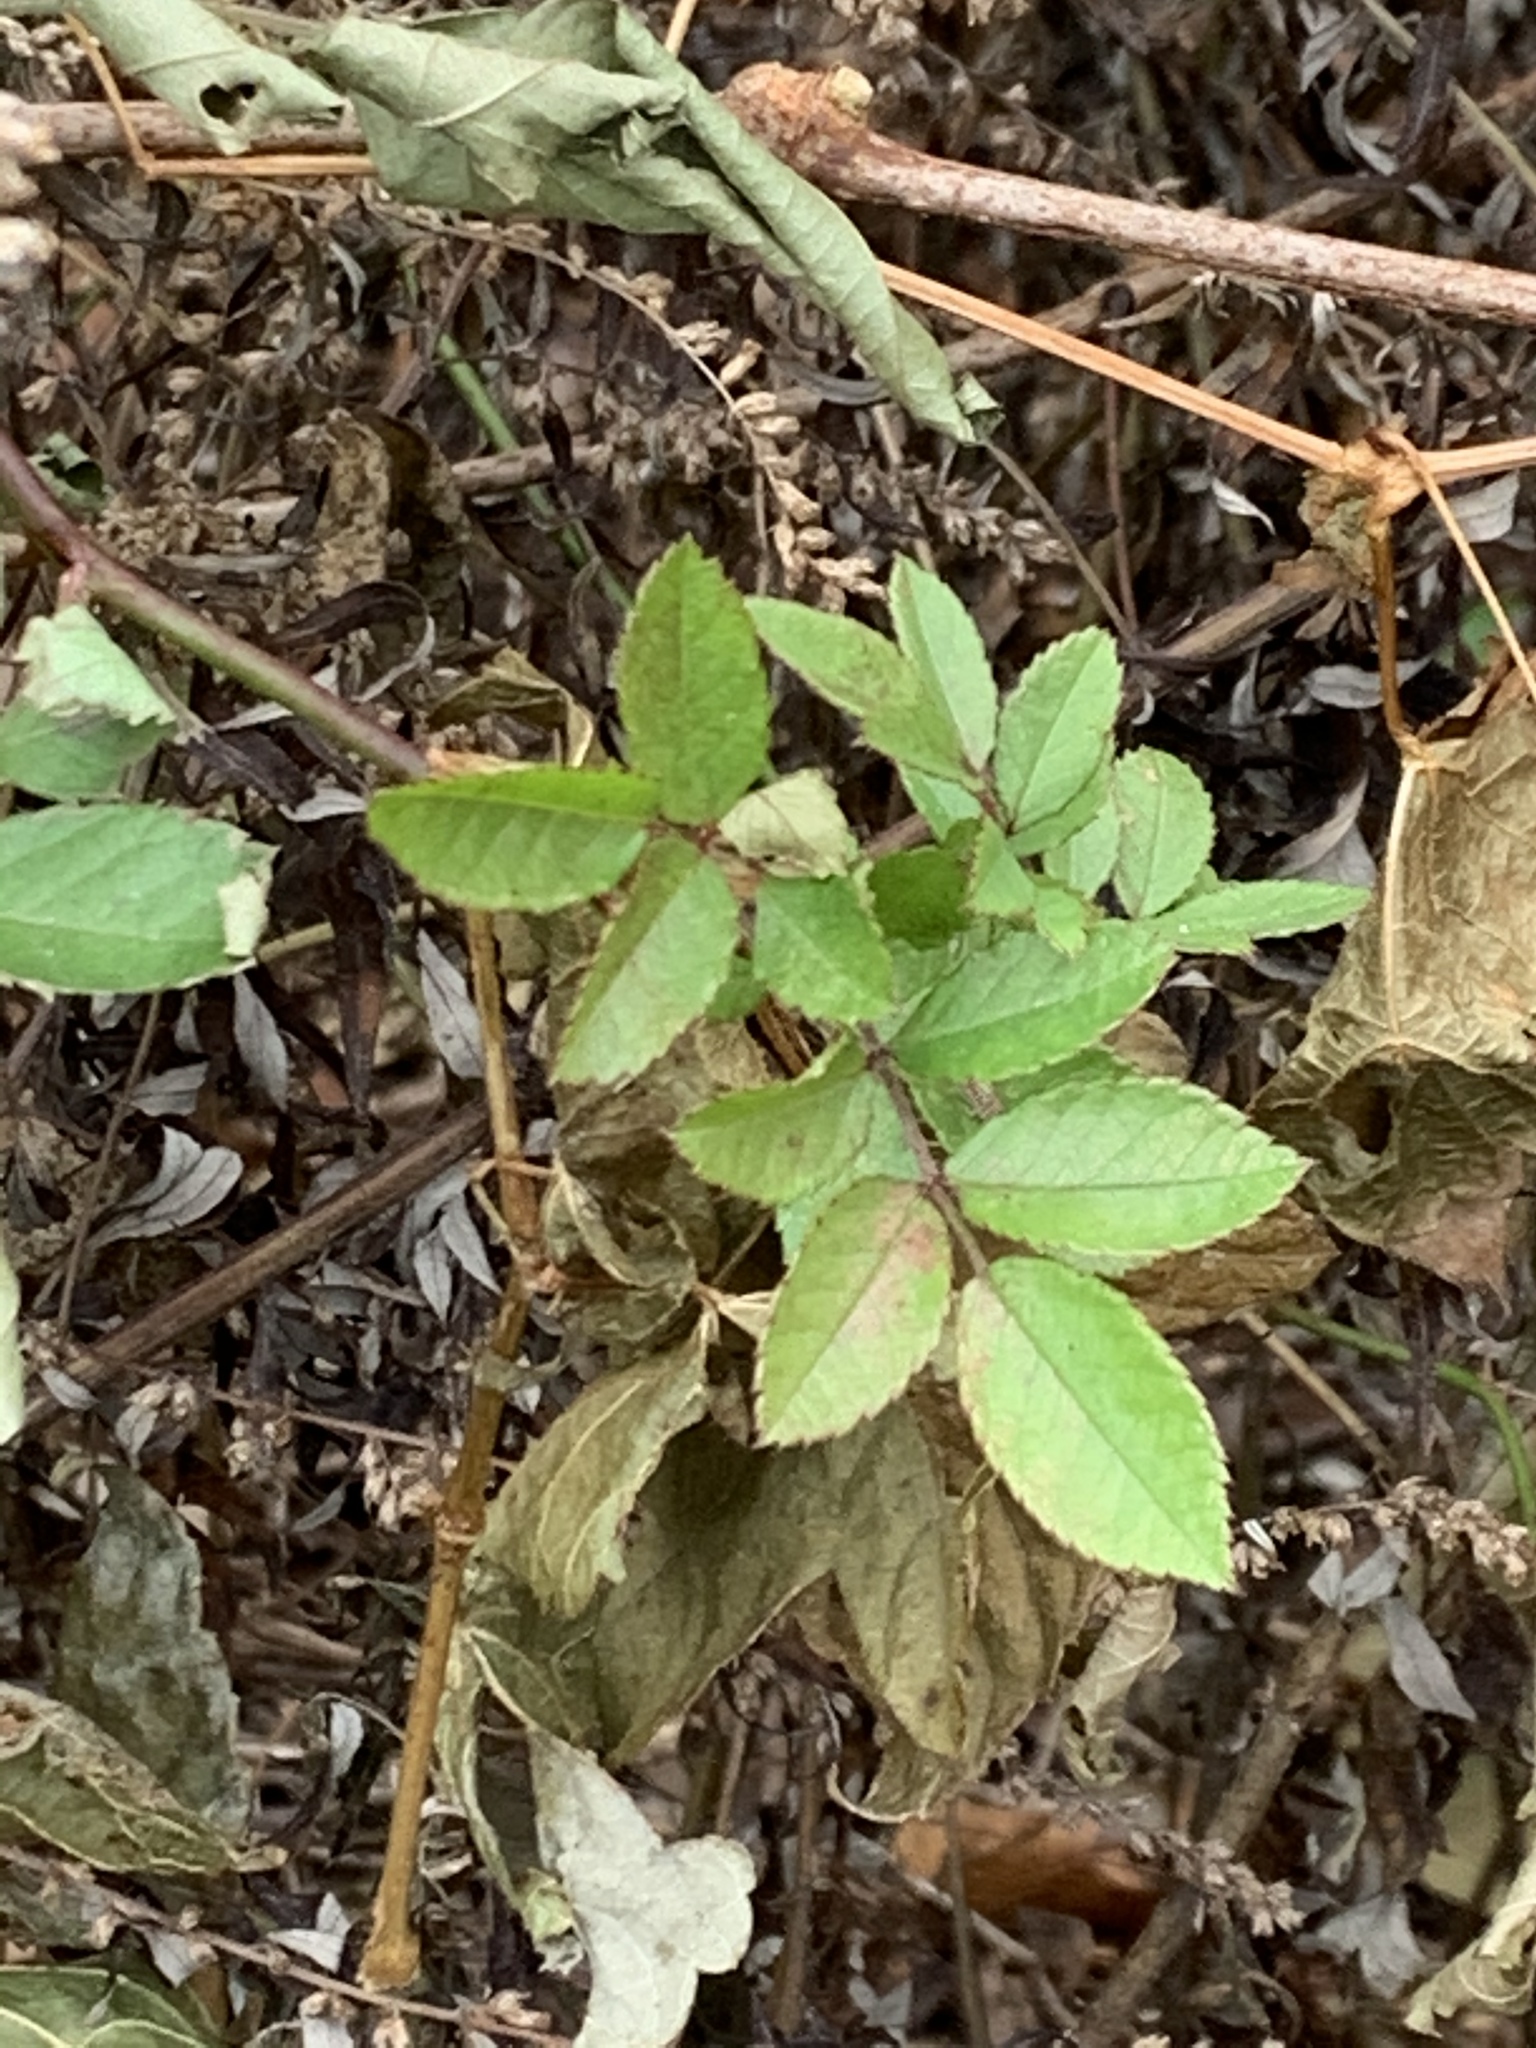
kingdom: Plantae
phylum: Tracheophyta
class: Magnoliopsida
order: Rosales
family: Rosaceae
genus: Rosa
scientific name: Rosa multiflora
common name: Multiflora rose
